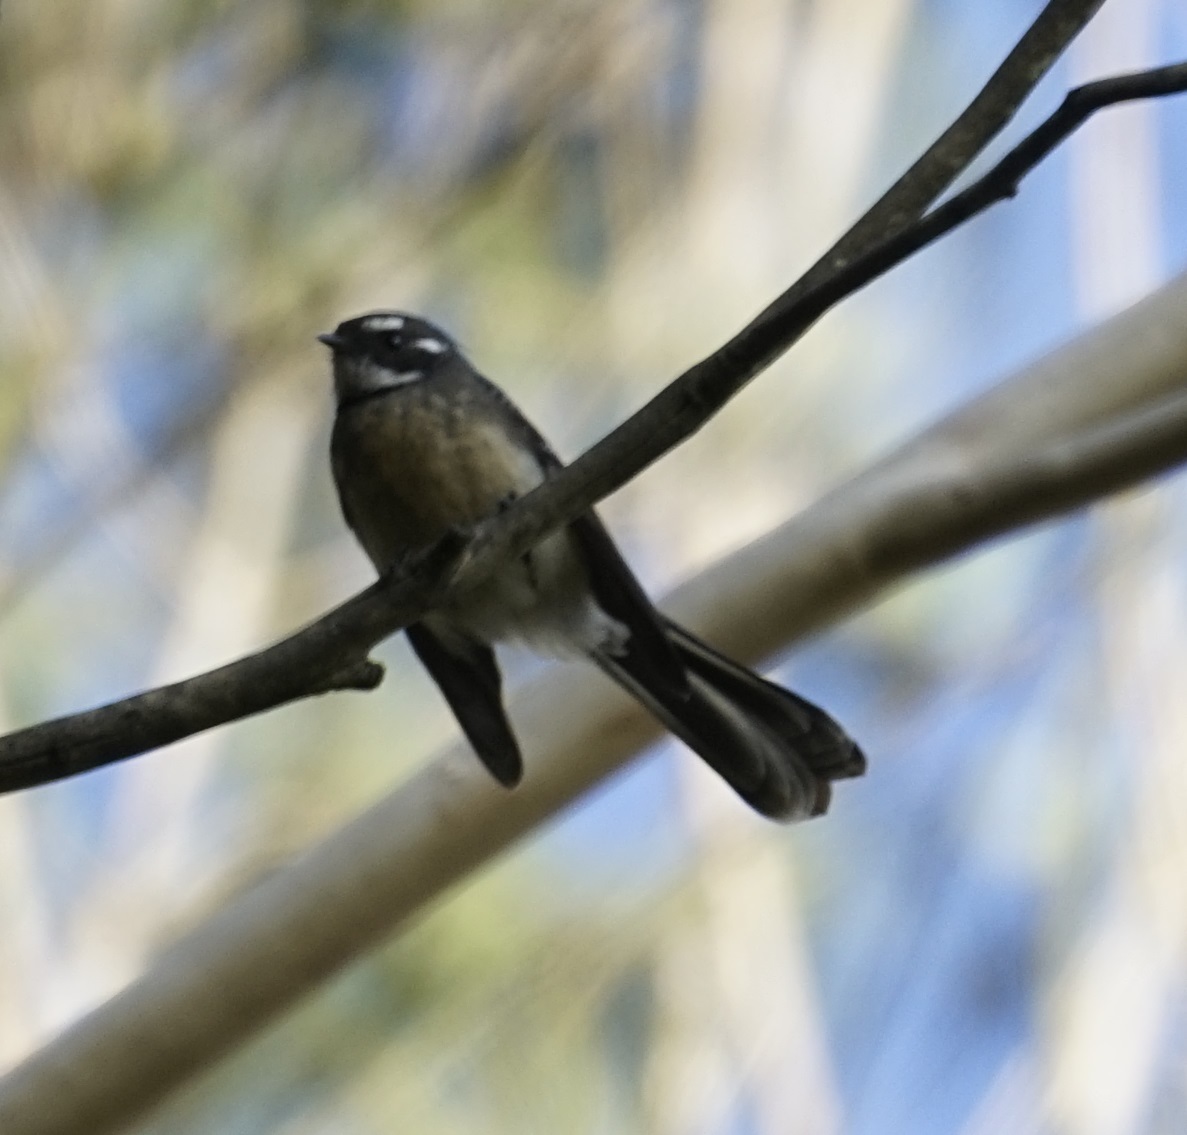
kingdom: Animalia
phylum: Chordata
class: Aves
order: Passeriformes
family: Rhipiduridae
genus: Rhipidura
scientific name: Rhipidura albiscapa
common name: Grey fantail
